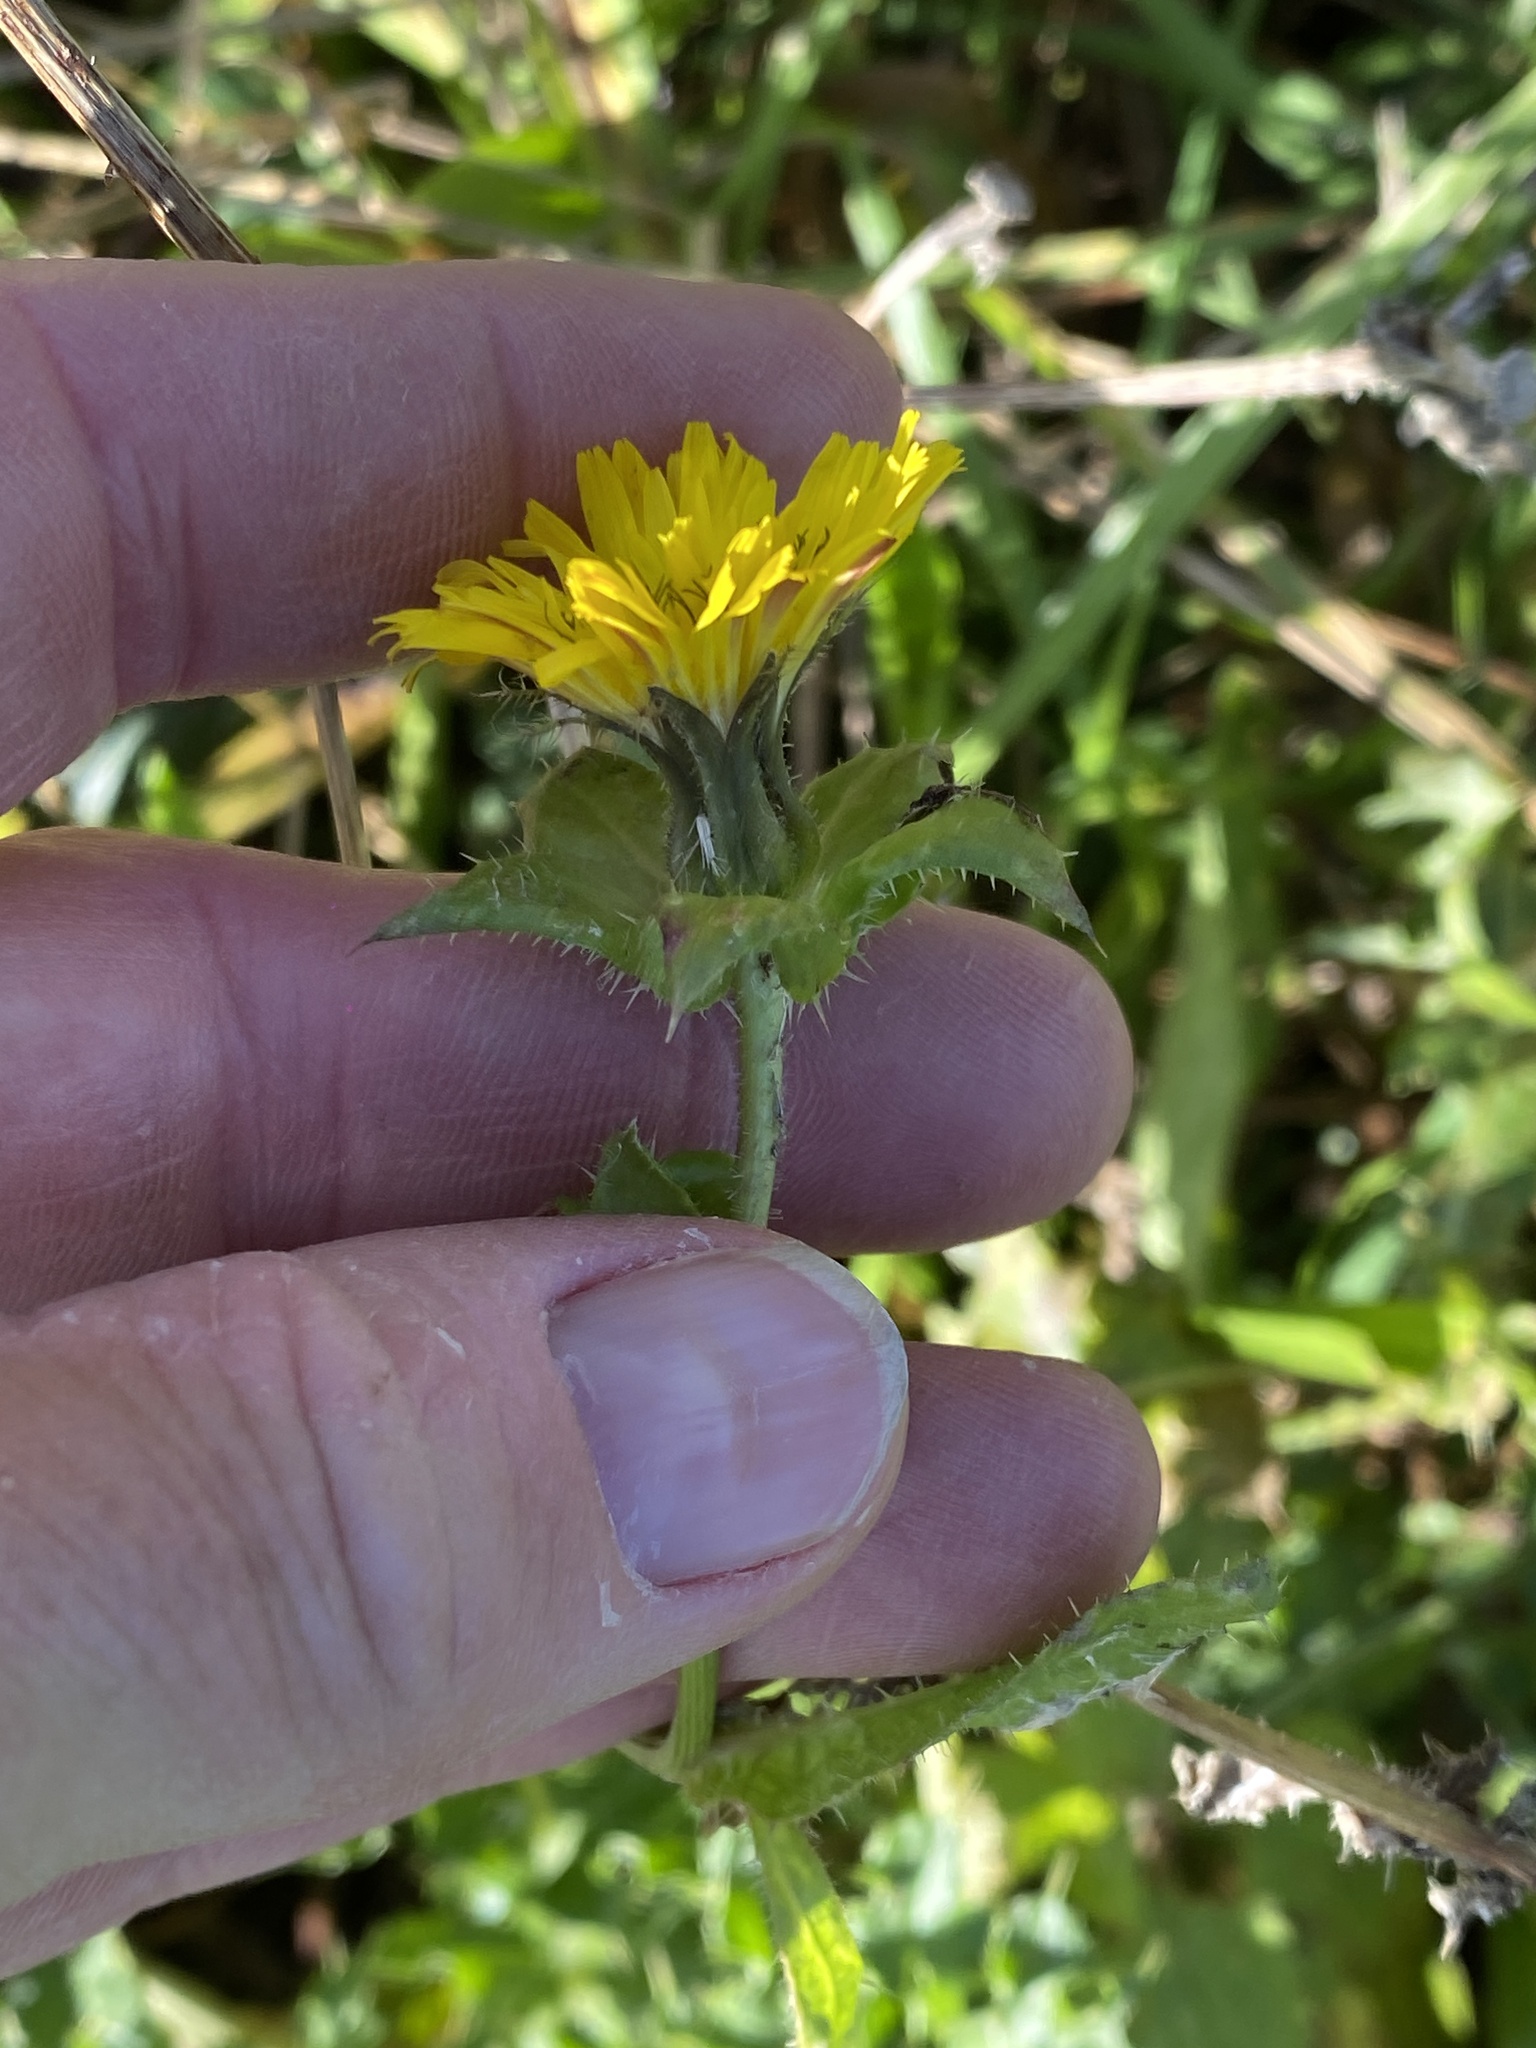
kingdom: Plantae
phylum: Tracheophyta
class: Magnoliopsida
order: Asterales
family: Asteraceae
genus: Helminthotheca
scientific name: Helminthotheca echioides
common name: Ox-tongue
